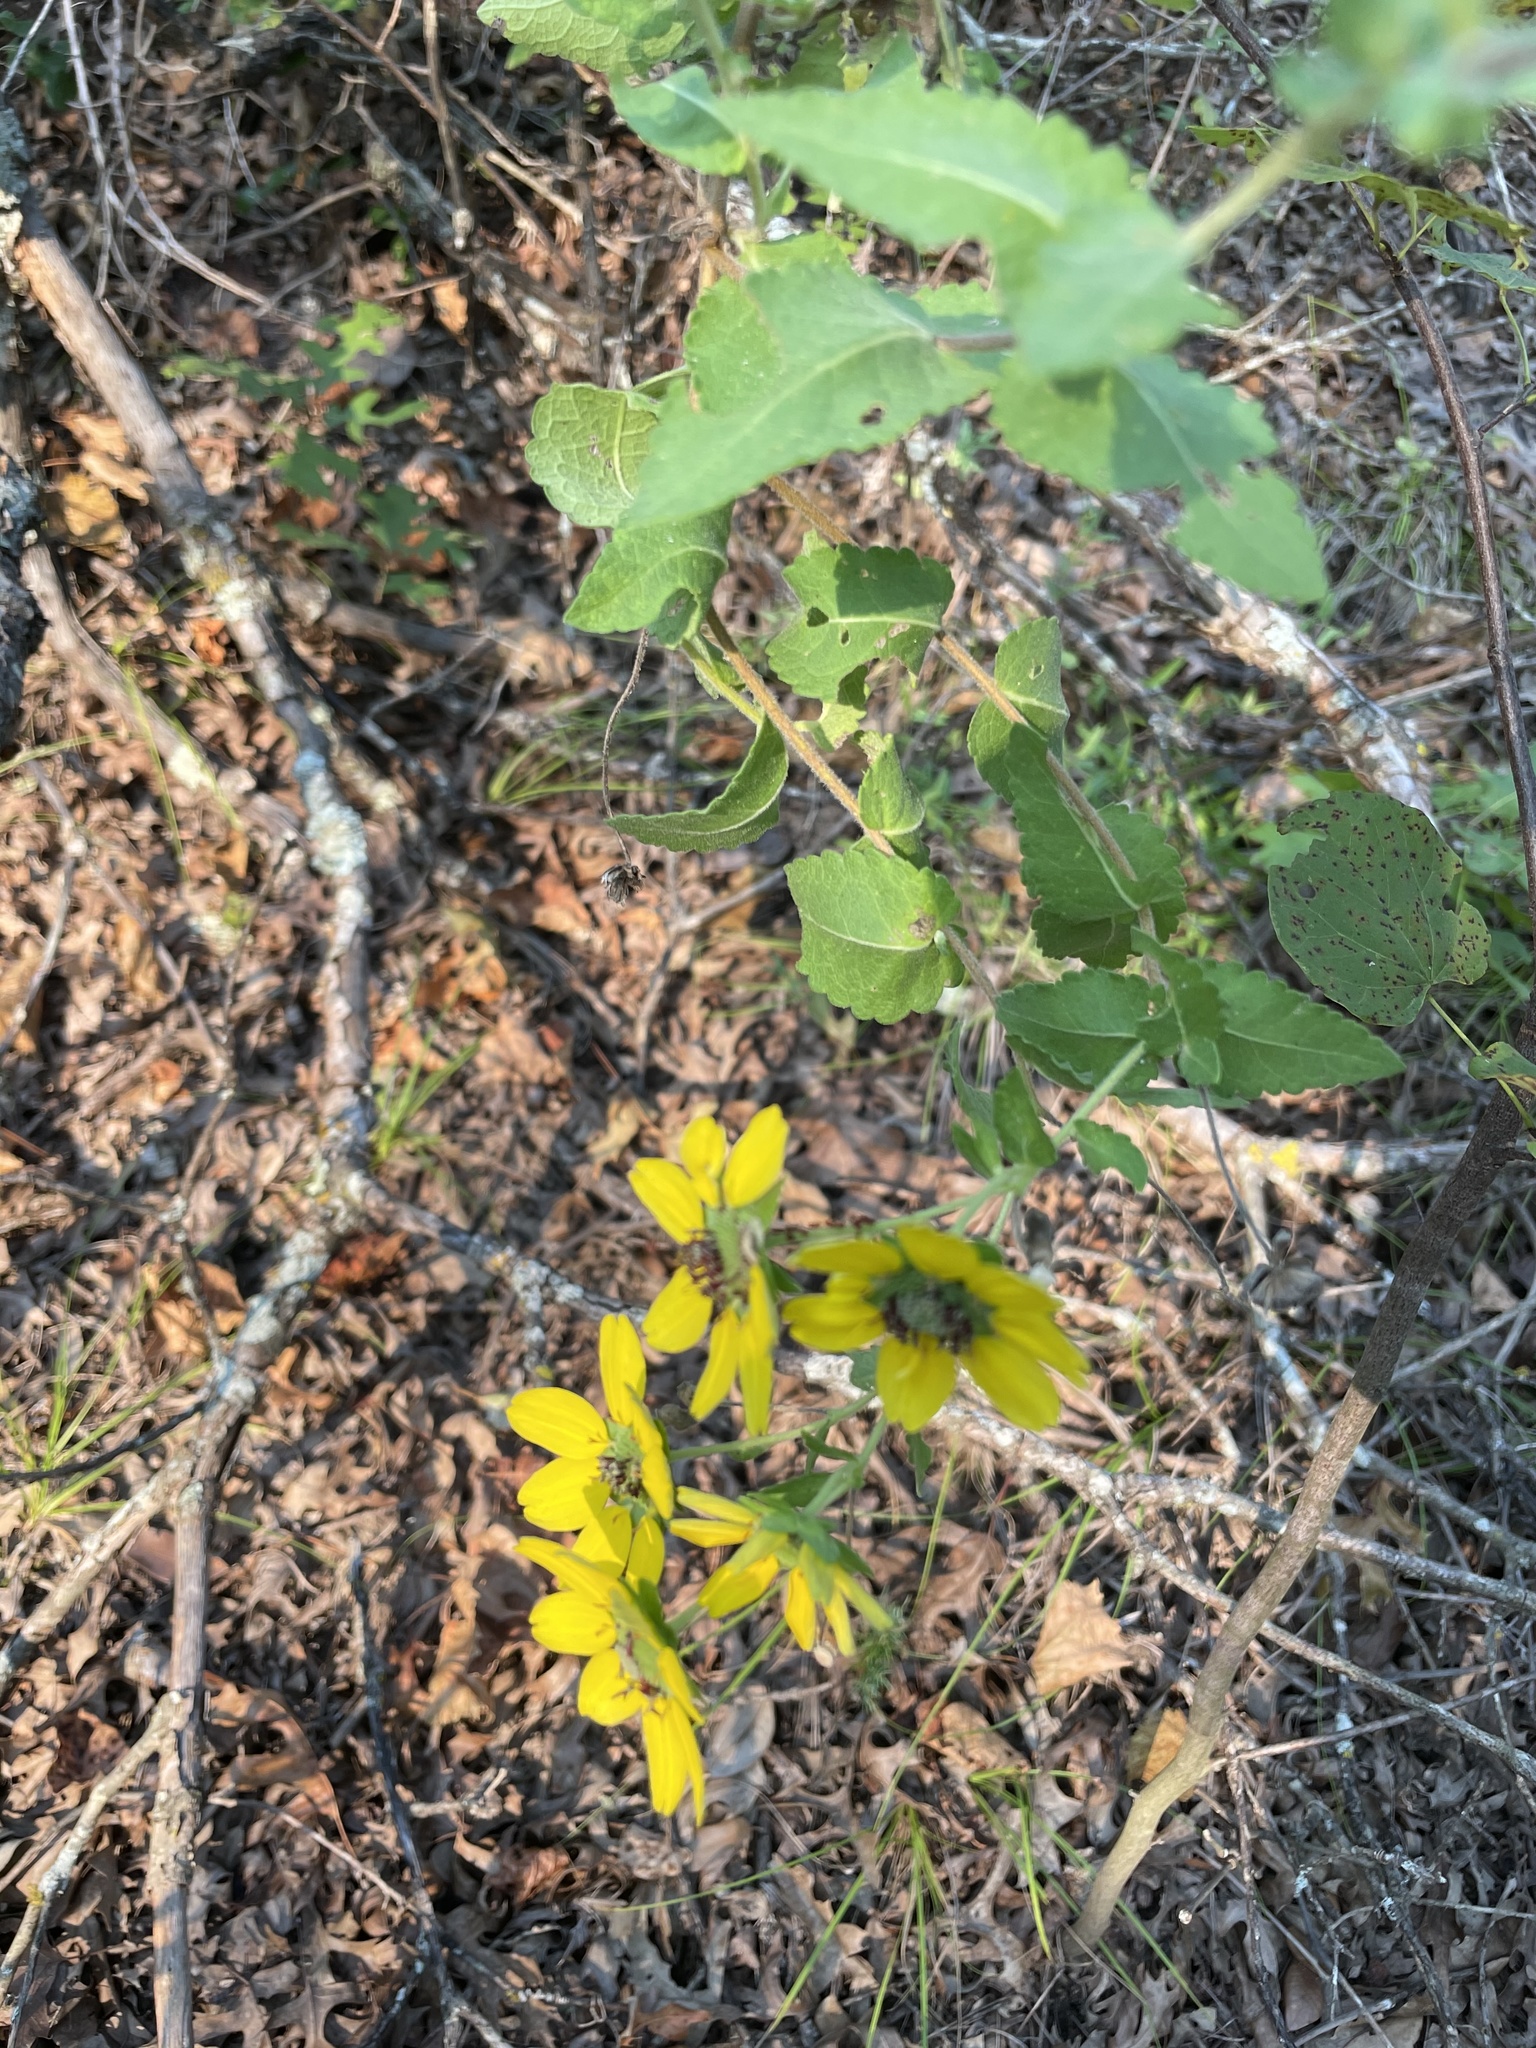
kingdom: Plantae
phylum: Tracheophyta
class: Magnoliopsida
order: Asterales
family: Asteraceae
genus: Berlandiera
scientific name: Berlandiera betonicifolia
